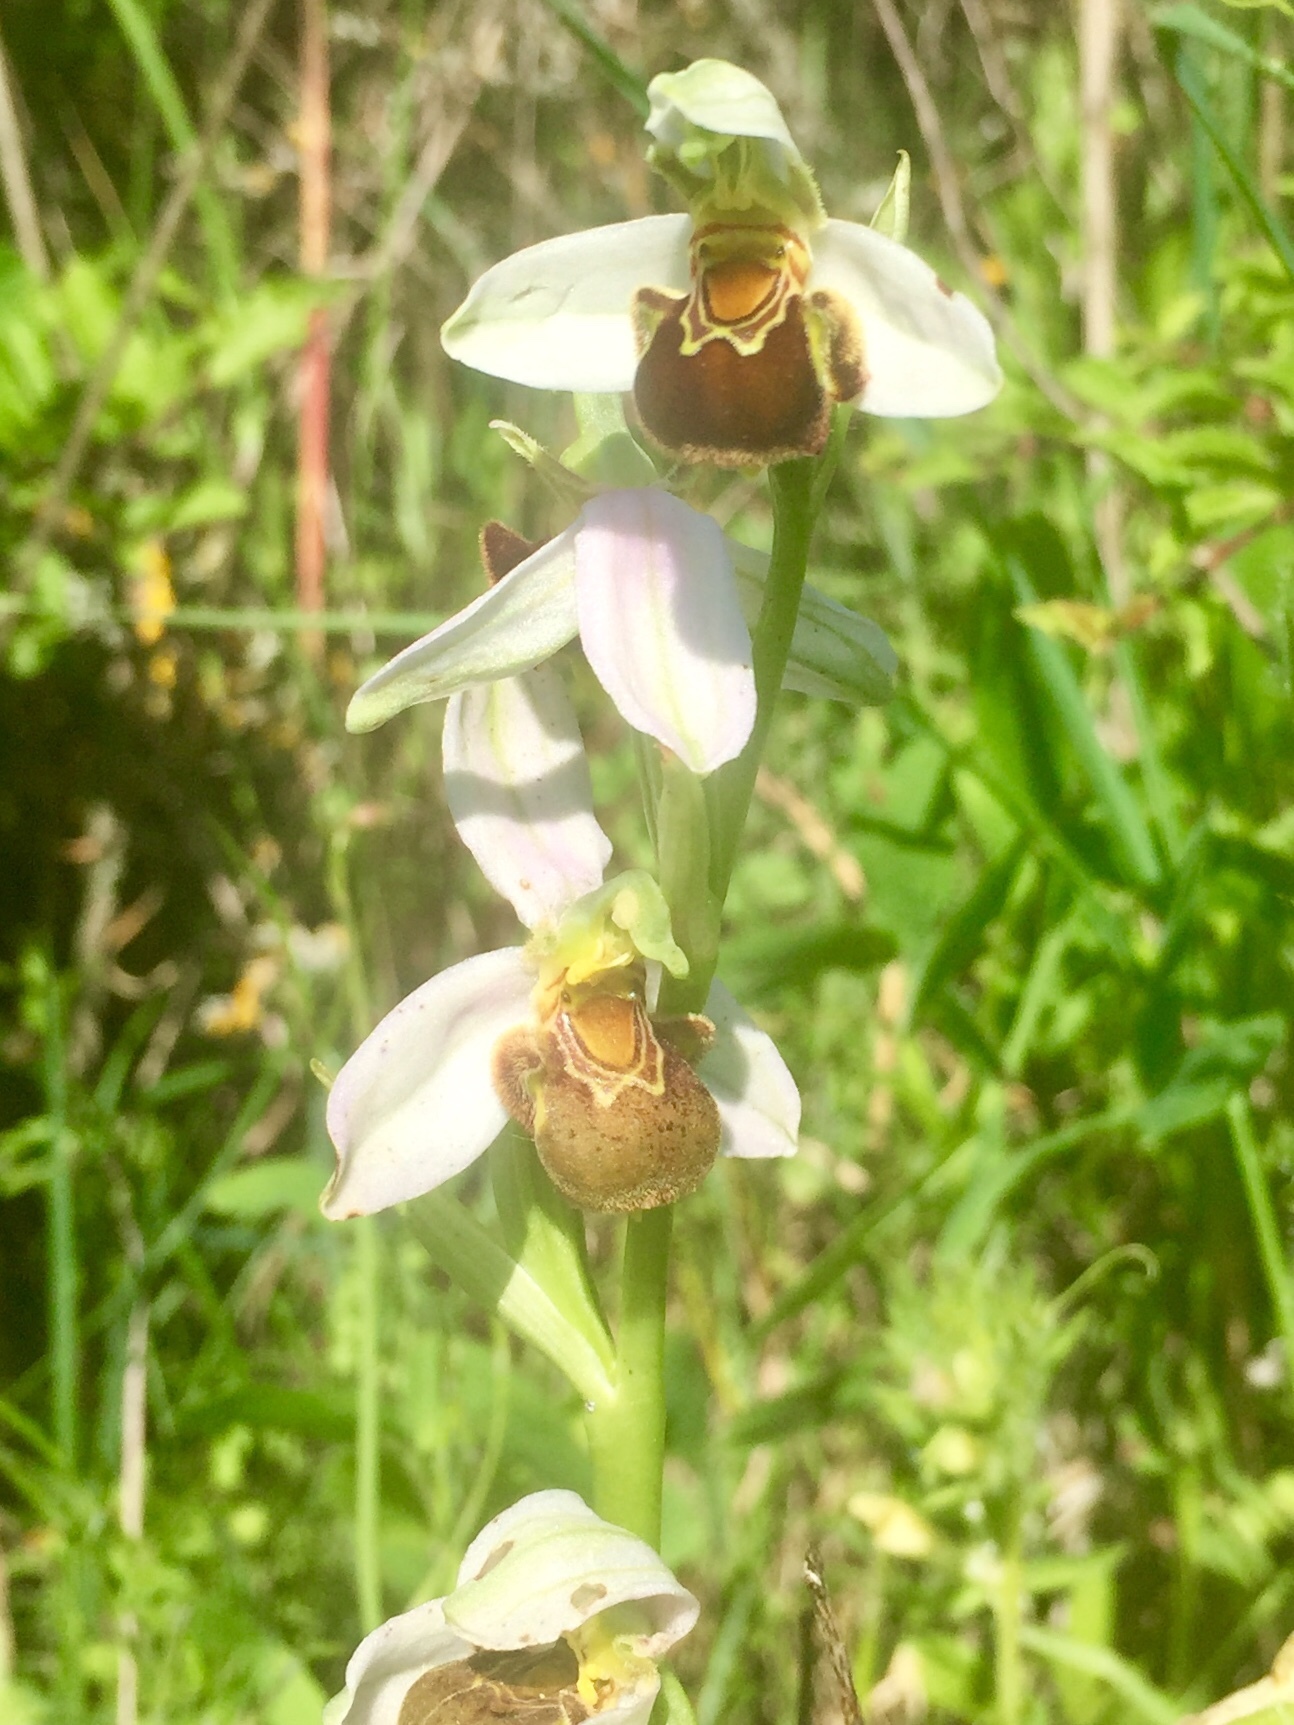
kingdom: Plantae
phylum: Tracheophyta
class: Liliopsida
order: Asparagales
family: Orchidaceae
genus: Ophrys
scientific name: Ophrys apifera
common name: Bee orchid
